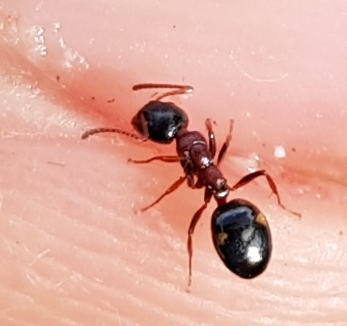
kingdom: Animalia
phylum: Arthropoda
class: Insecta
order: Hymenoptera
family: Formicidae
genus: Dolichoderus
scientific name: Dolichoderus quadripunctatus
